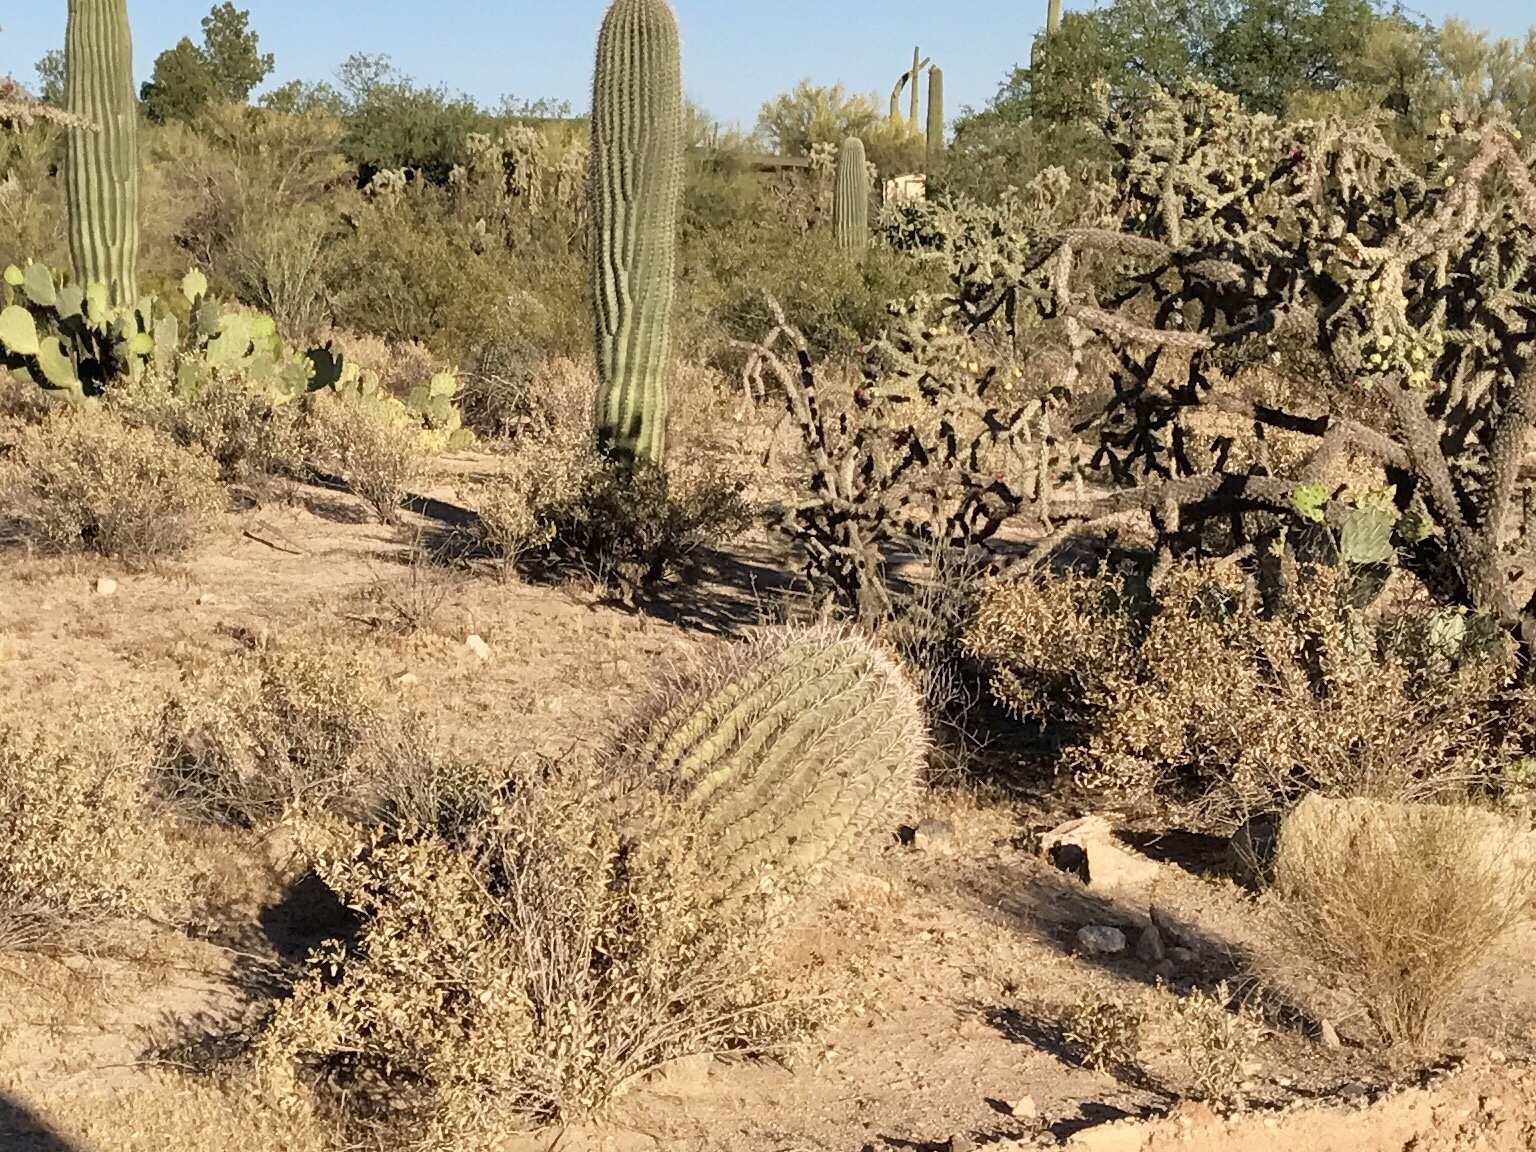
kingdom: Plantae
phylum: Tracheophyta
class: Magnoliopsida
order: Caryophyllales
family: Cactaceae
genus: Ferocactus
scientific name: Ferocactus wislizeni
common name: Candy barrel cactus
